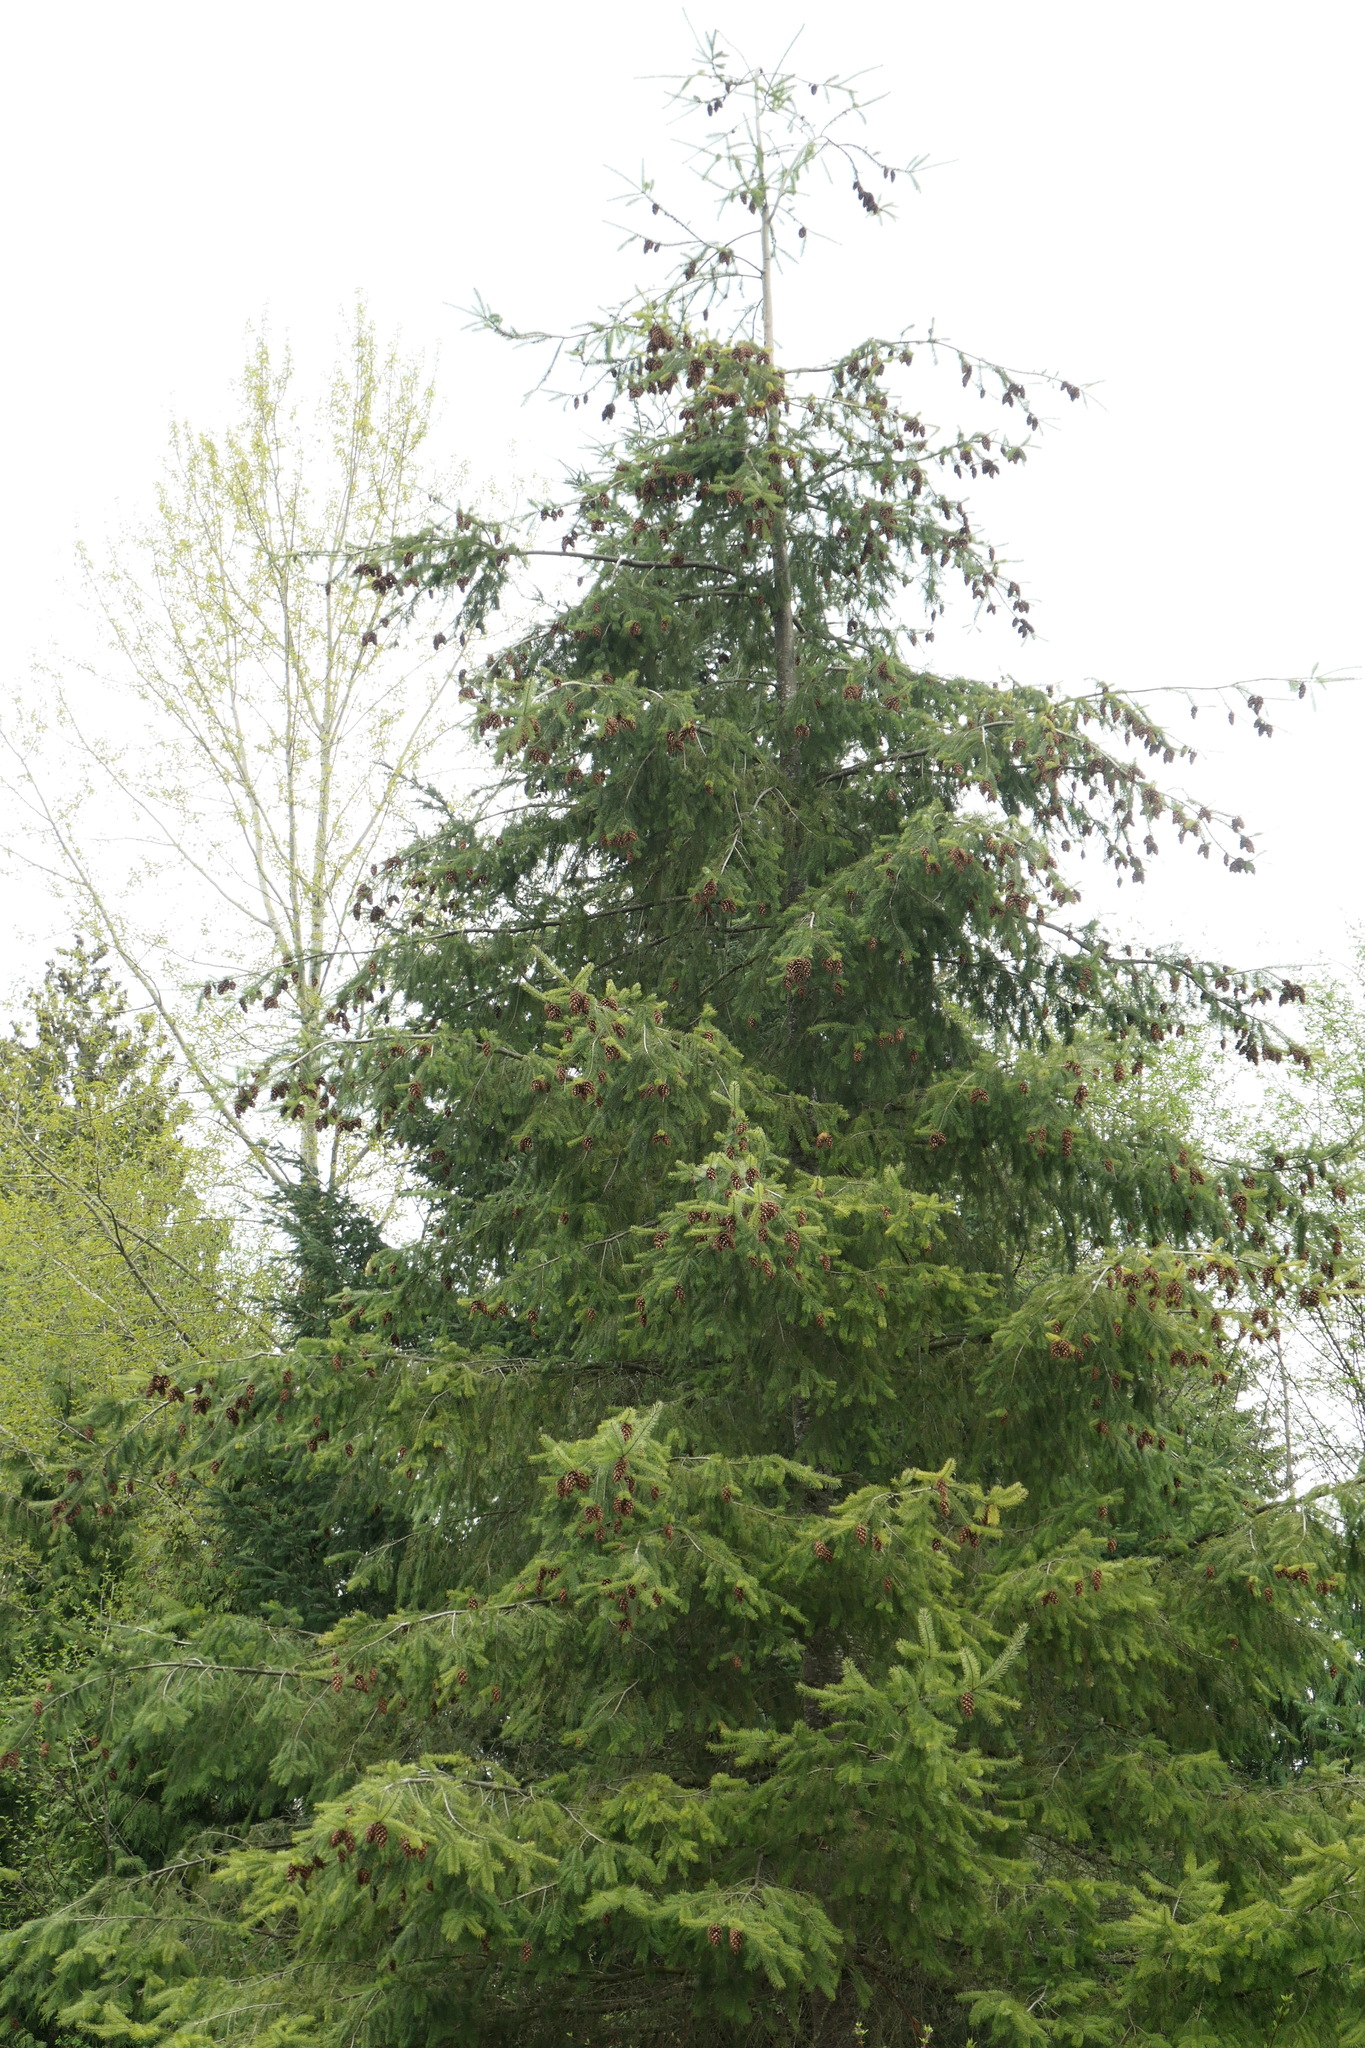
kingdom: Plantae
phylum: Tracheophyta
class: Pinopsida
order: Pinales
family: Pinaceae
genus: Pseudotsuga
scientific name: Pseudotsuga menziesii
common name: Douglas fir
